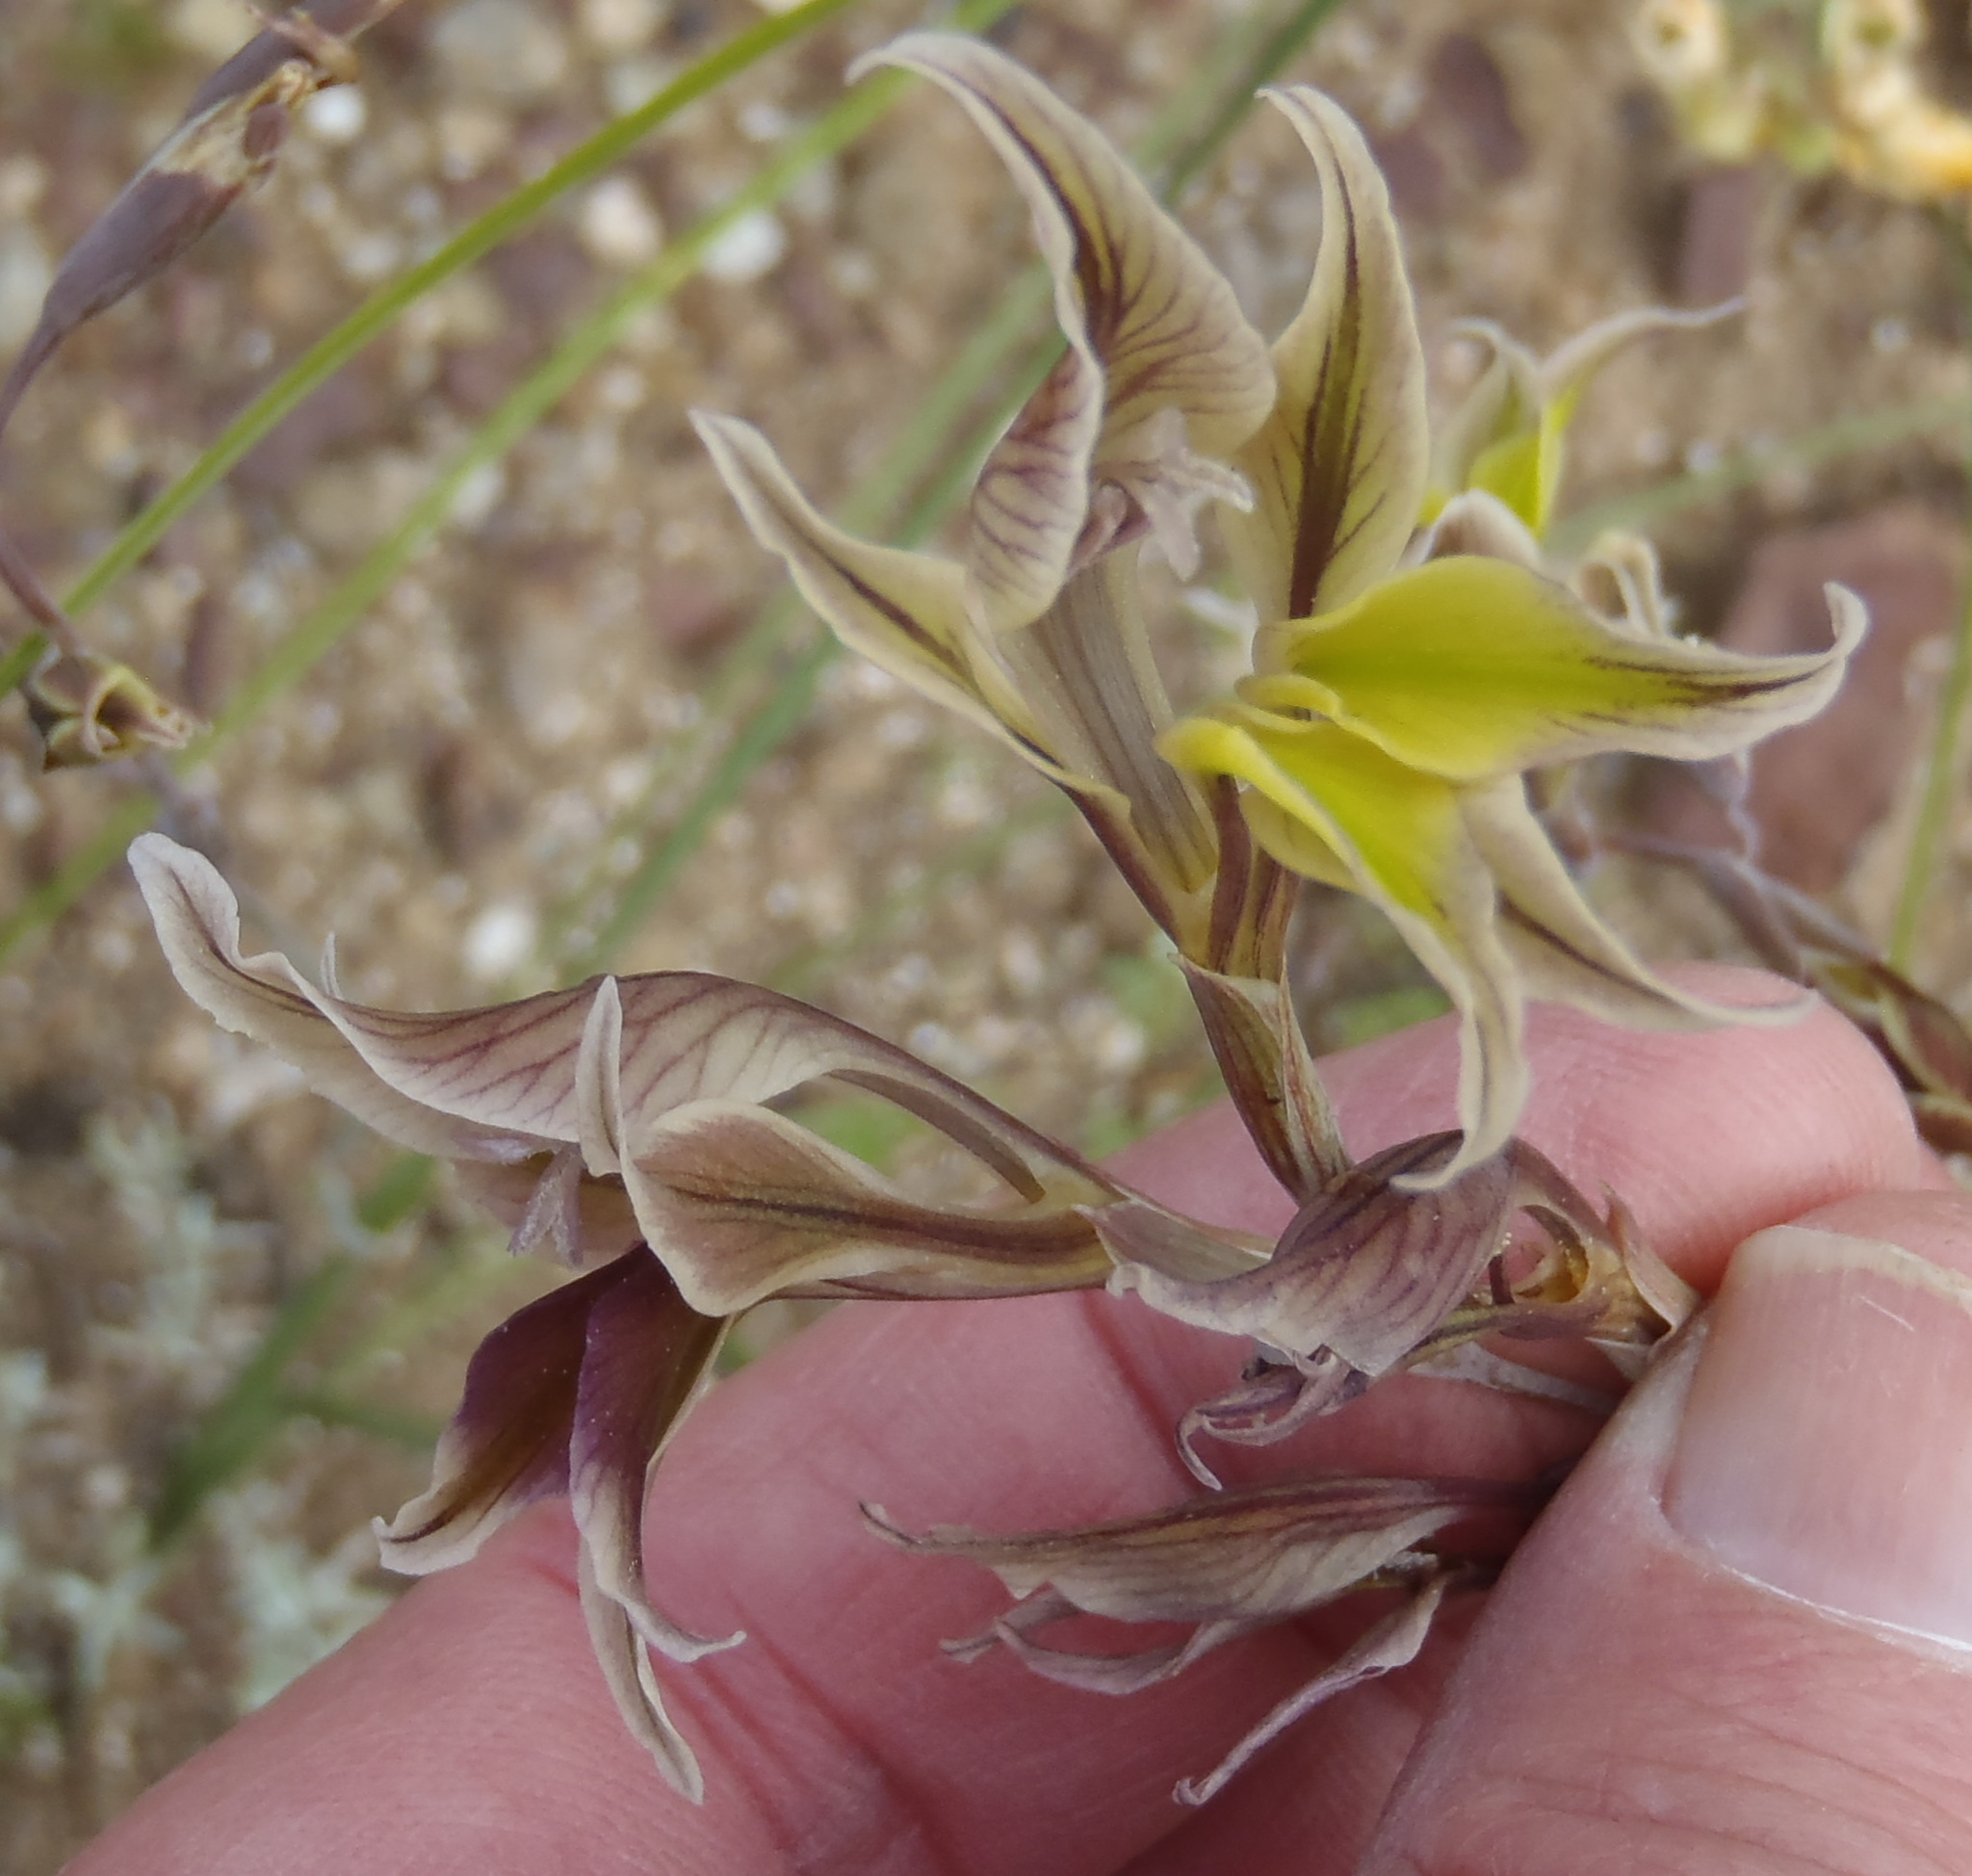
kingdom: Plantae
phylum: Tracheophyta
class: Liliopsida
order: Asparagales
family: Iridaceae
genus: Gladiolus
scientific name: Gladiolus permeabilis
